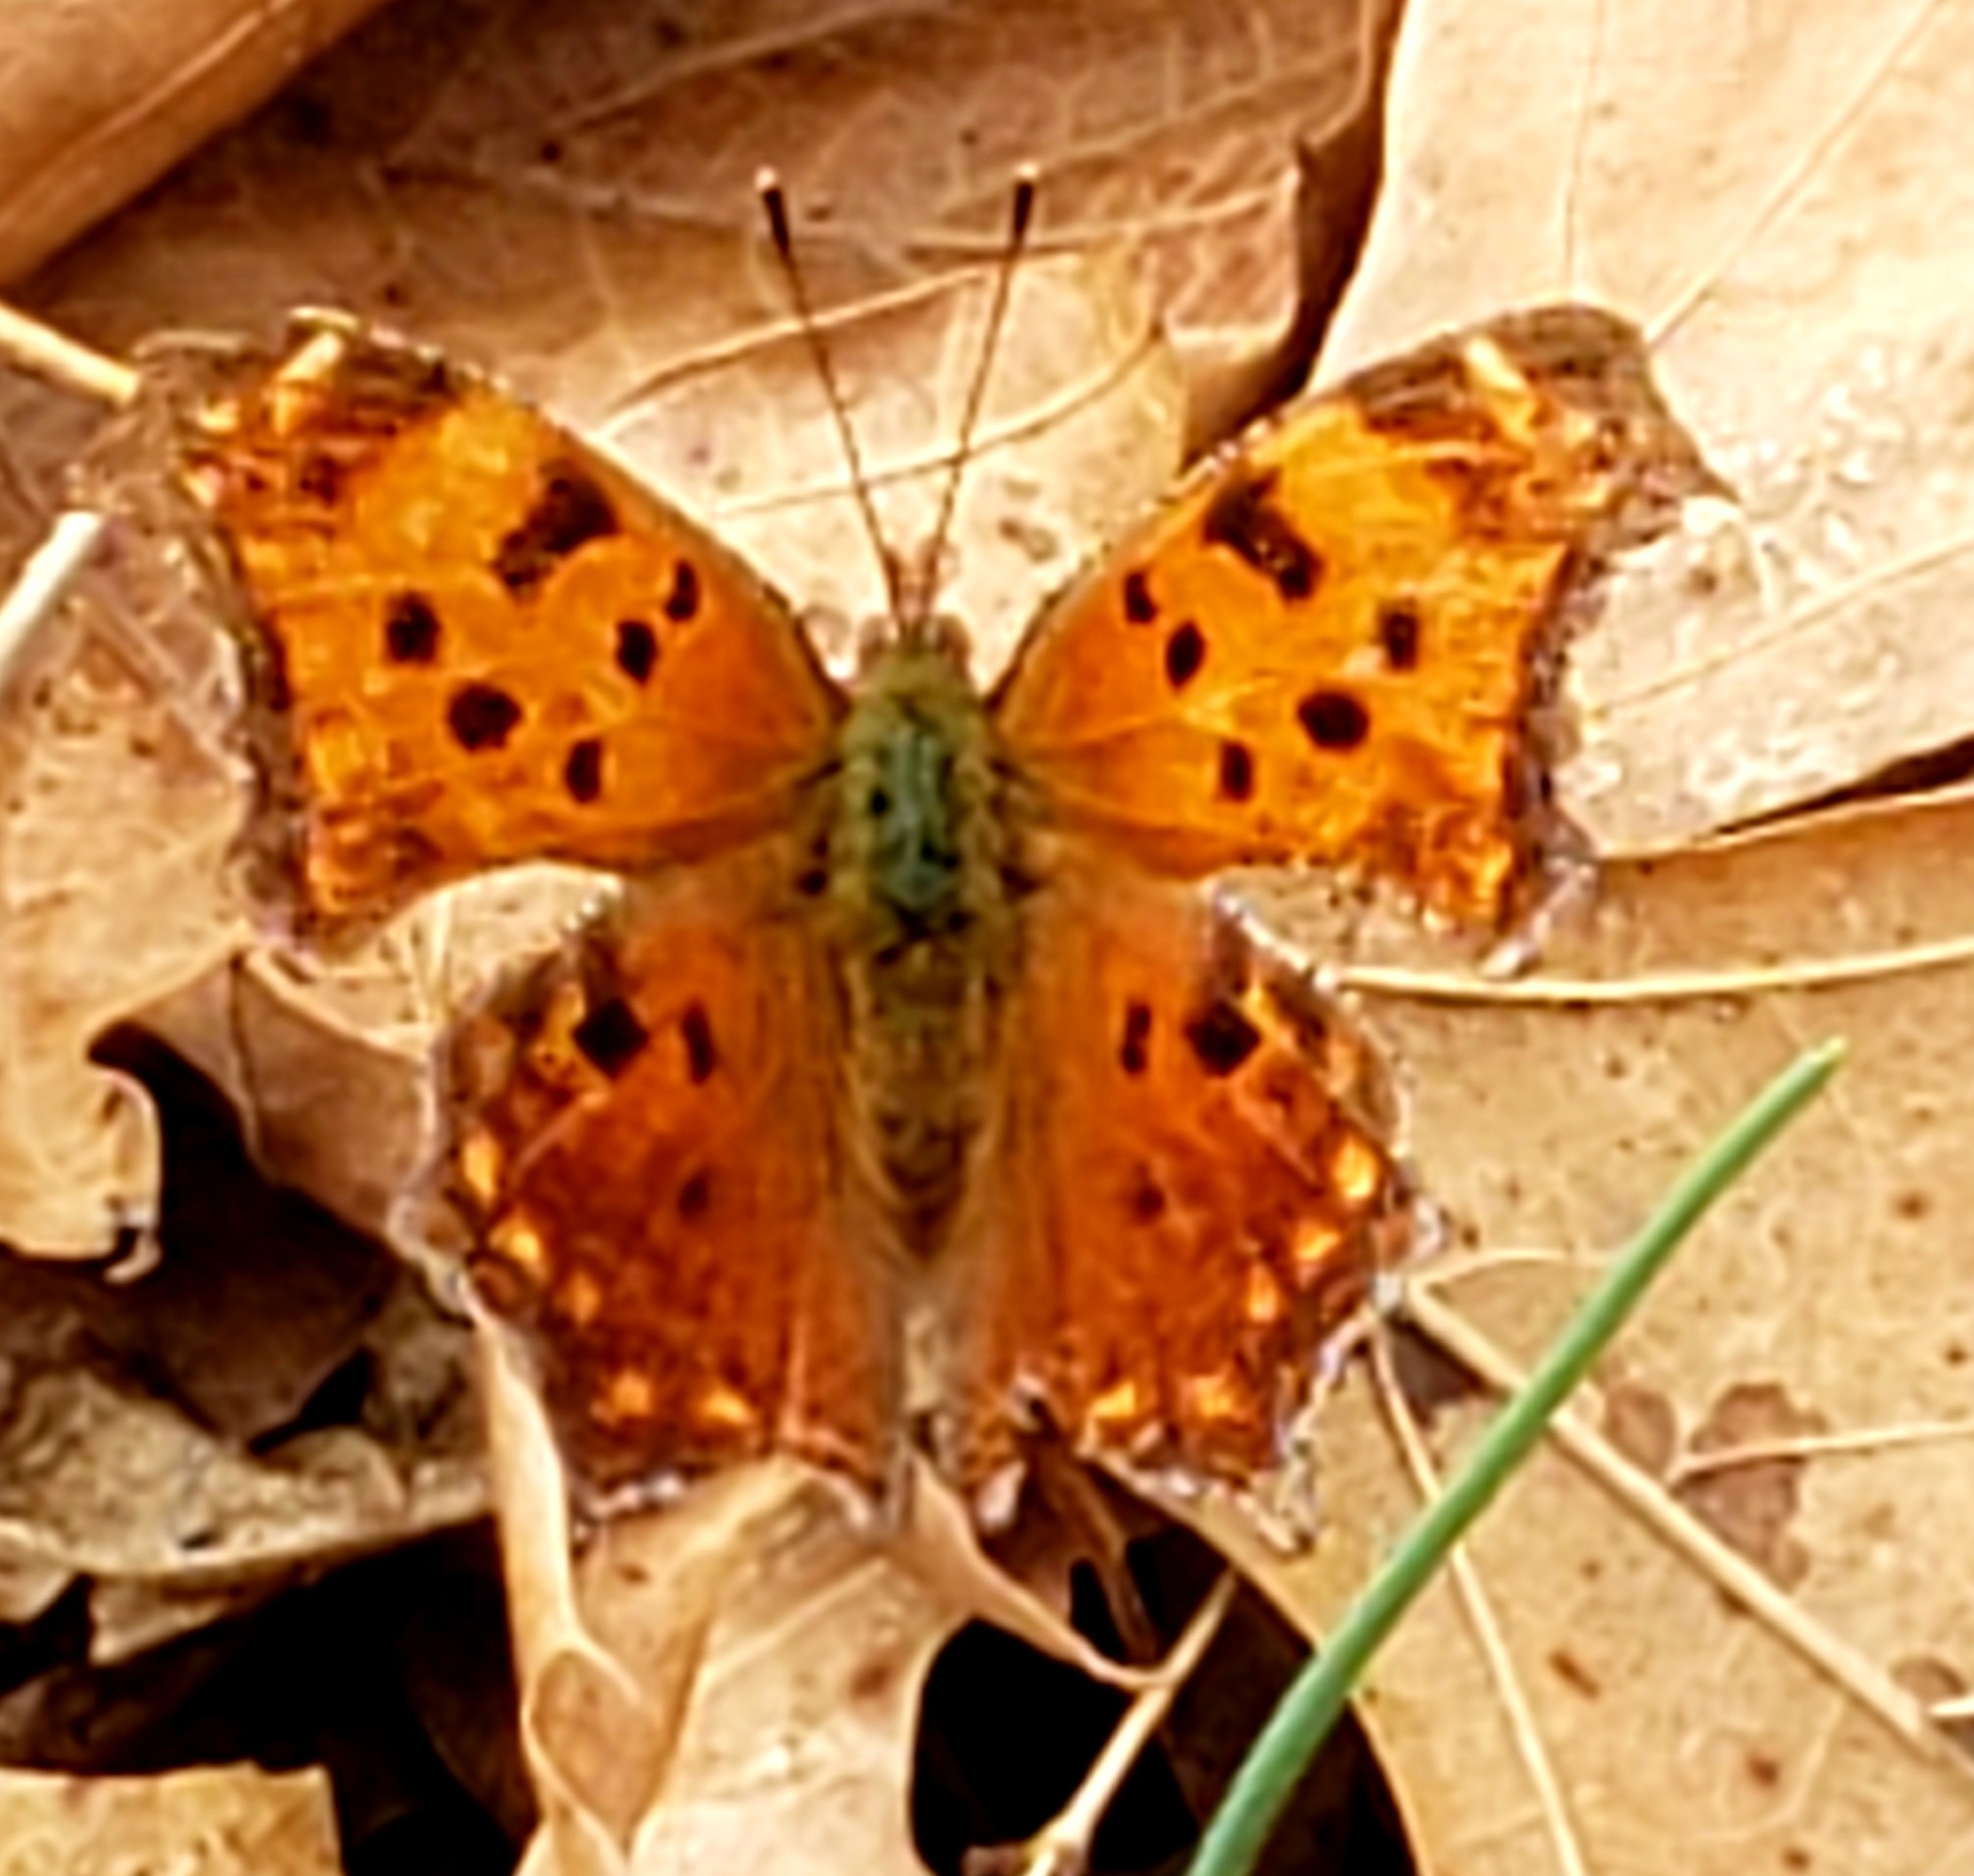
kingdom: Animalia
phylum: Arthropoda
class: Insecta
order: Lepidoptera
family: Nymphalidae
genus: Polygonia
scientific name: Polygonia comma
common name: Eastern comma
